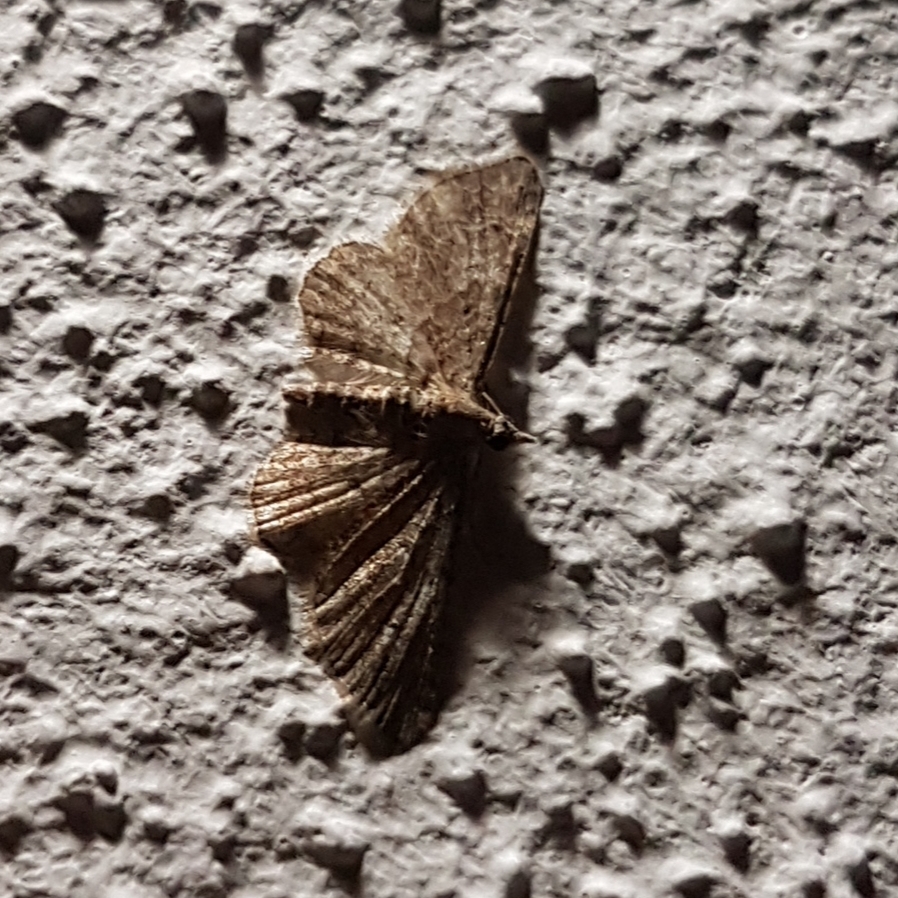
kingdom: Animalia
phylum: Arthropoda
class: Insecta
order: Lepidoptera
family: Geometridae
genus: Gymnoscelis
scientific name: Gymnoscelis rufifasciata
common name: Double-striped pug
